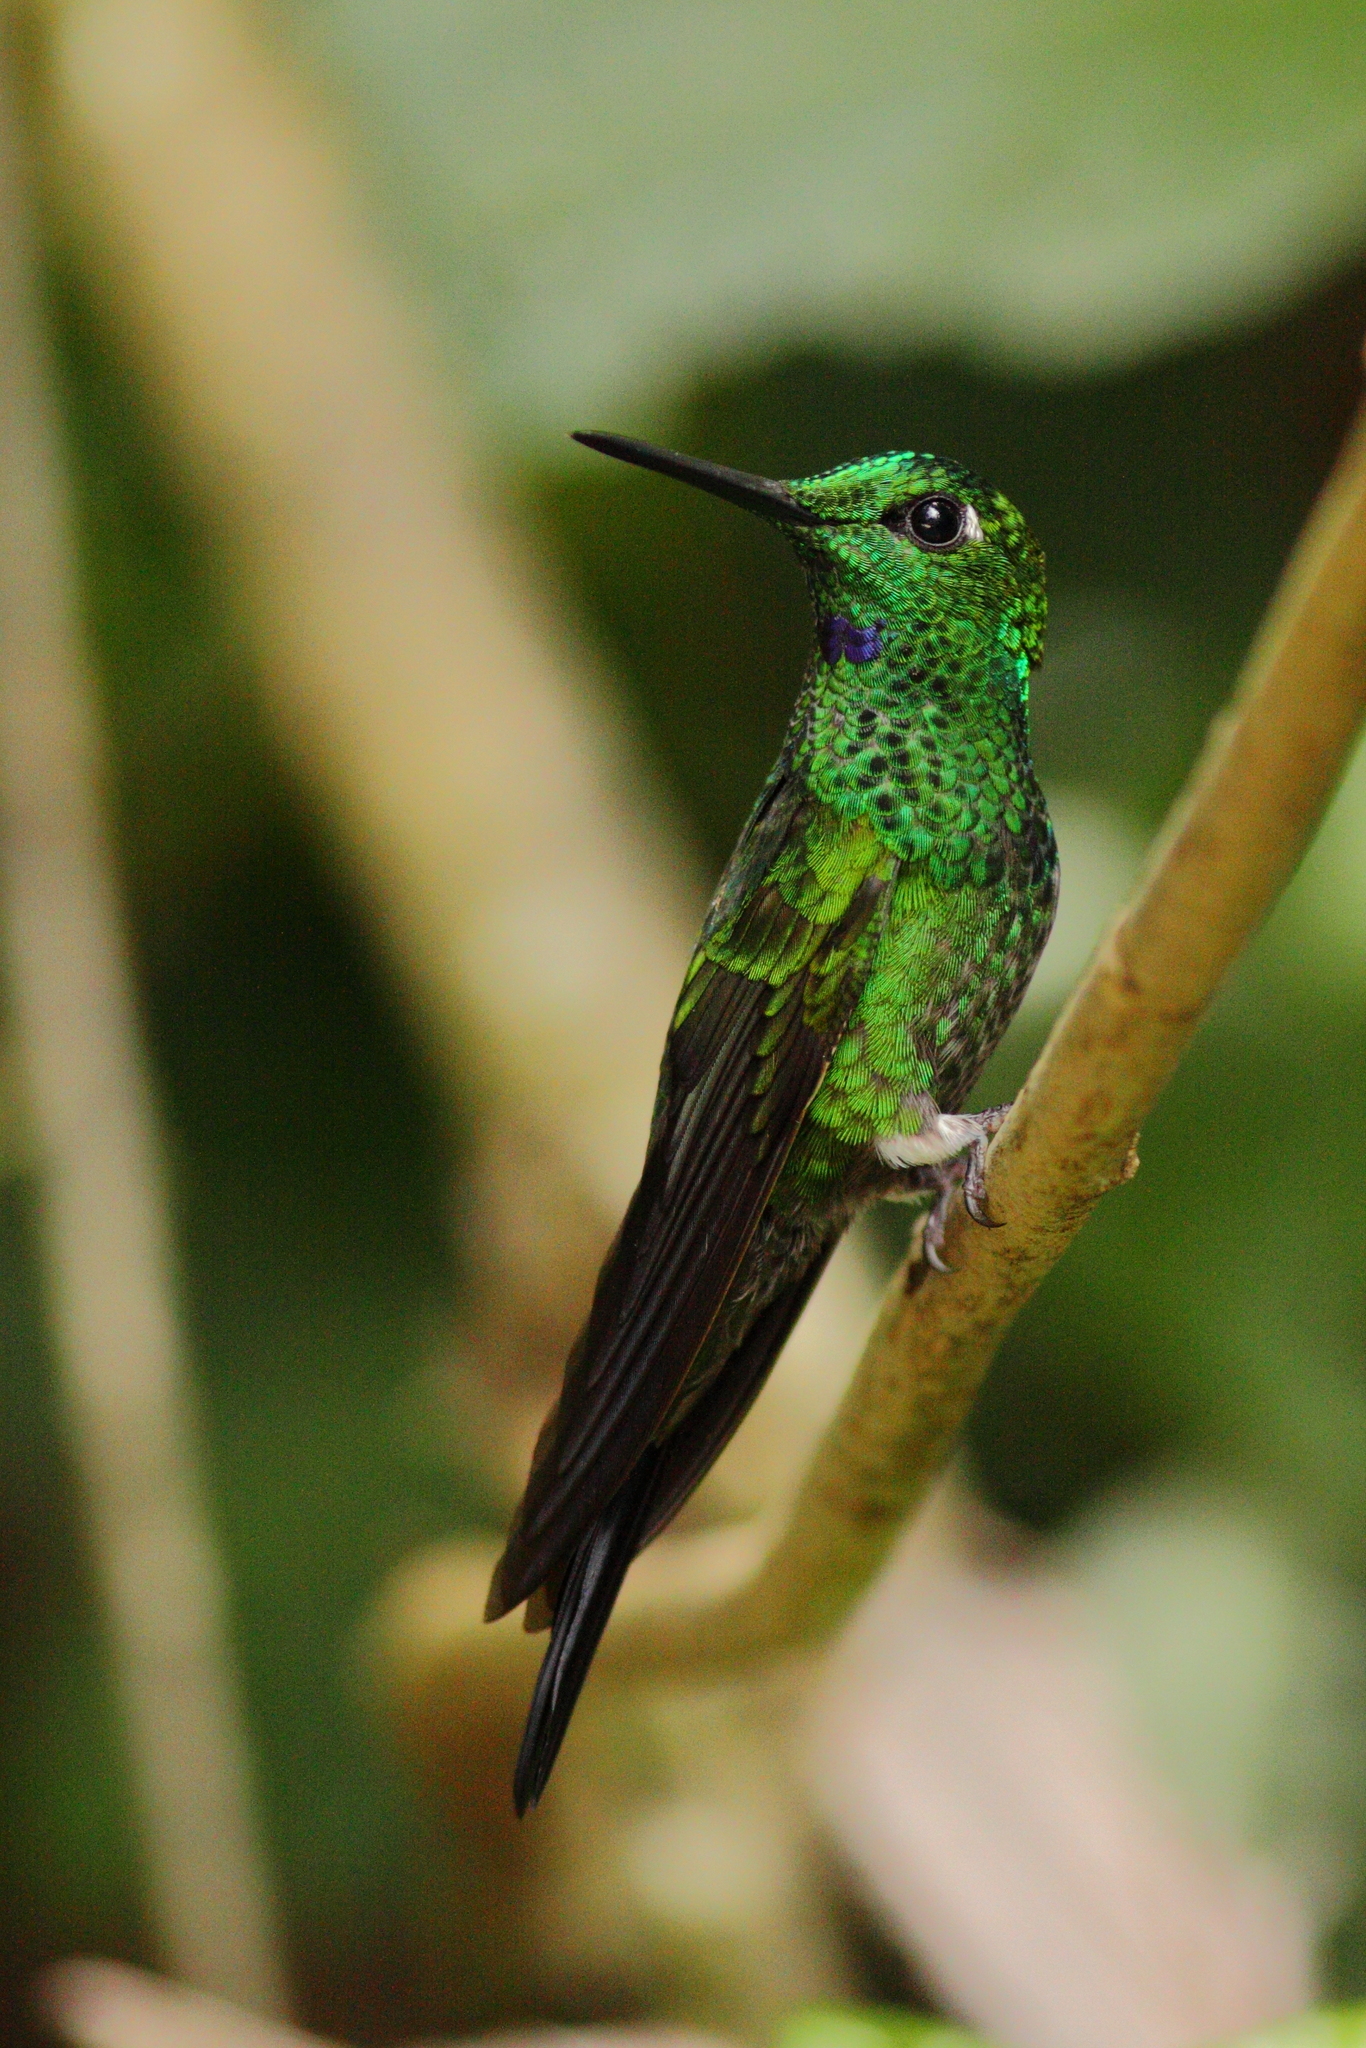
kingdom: Animalia
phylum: Chordata
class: Aves
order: Apodiformes
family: Trochilidae
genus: Heliodoxa
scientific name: Heliodoxa jacula
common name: Green-crowned brilliant
